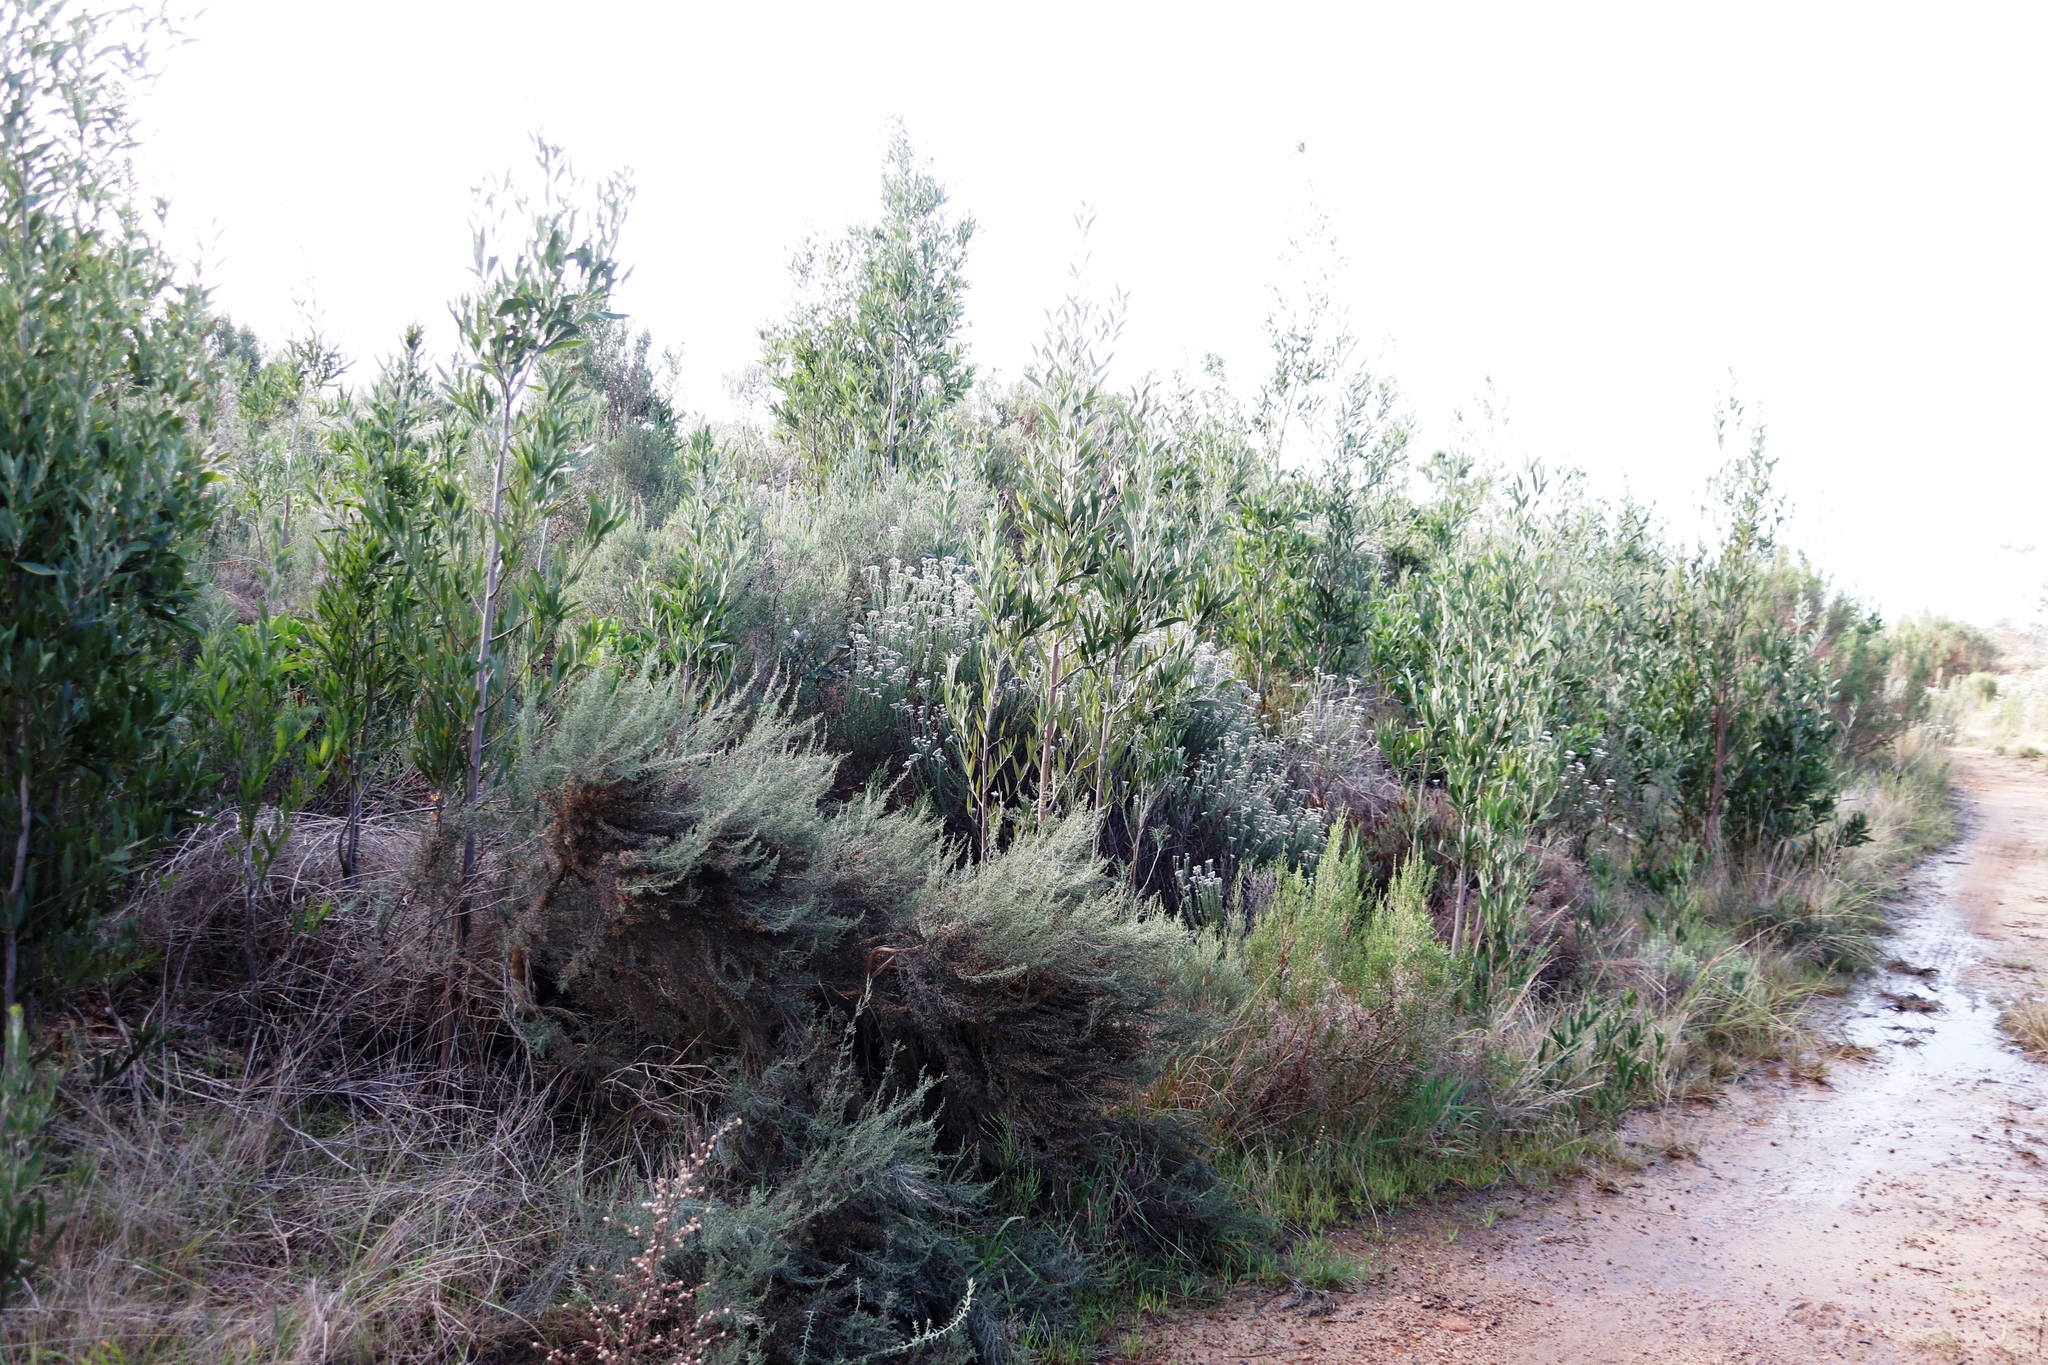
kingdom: Plantae
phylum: Tracheophyta
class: Magnoliopsida
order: Asterales
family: Asteraceae
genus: Seriphium
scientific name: Seriphium cinereum
